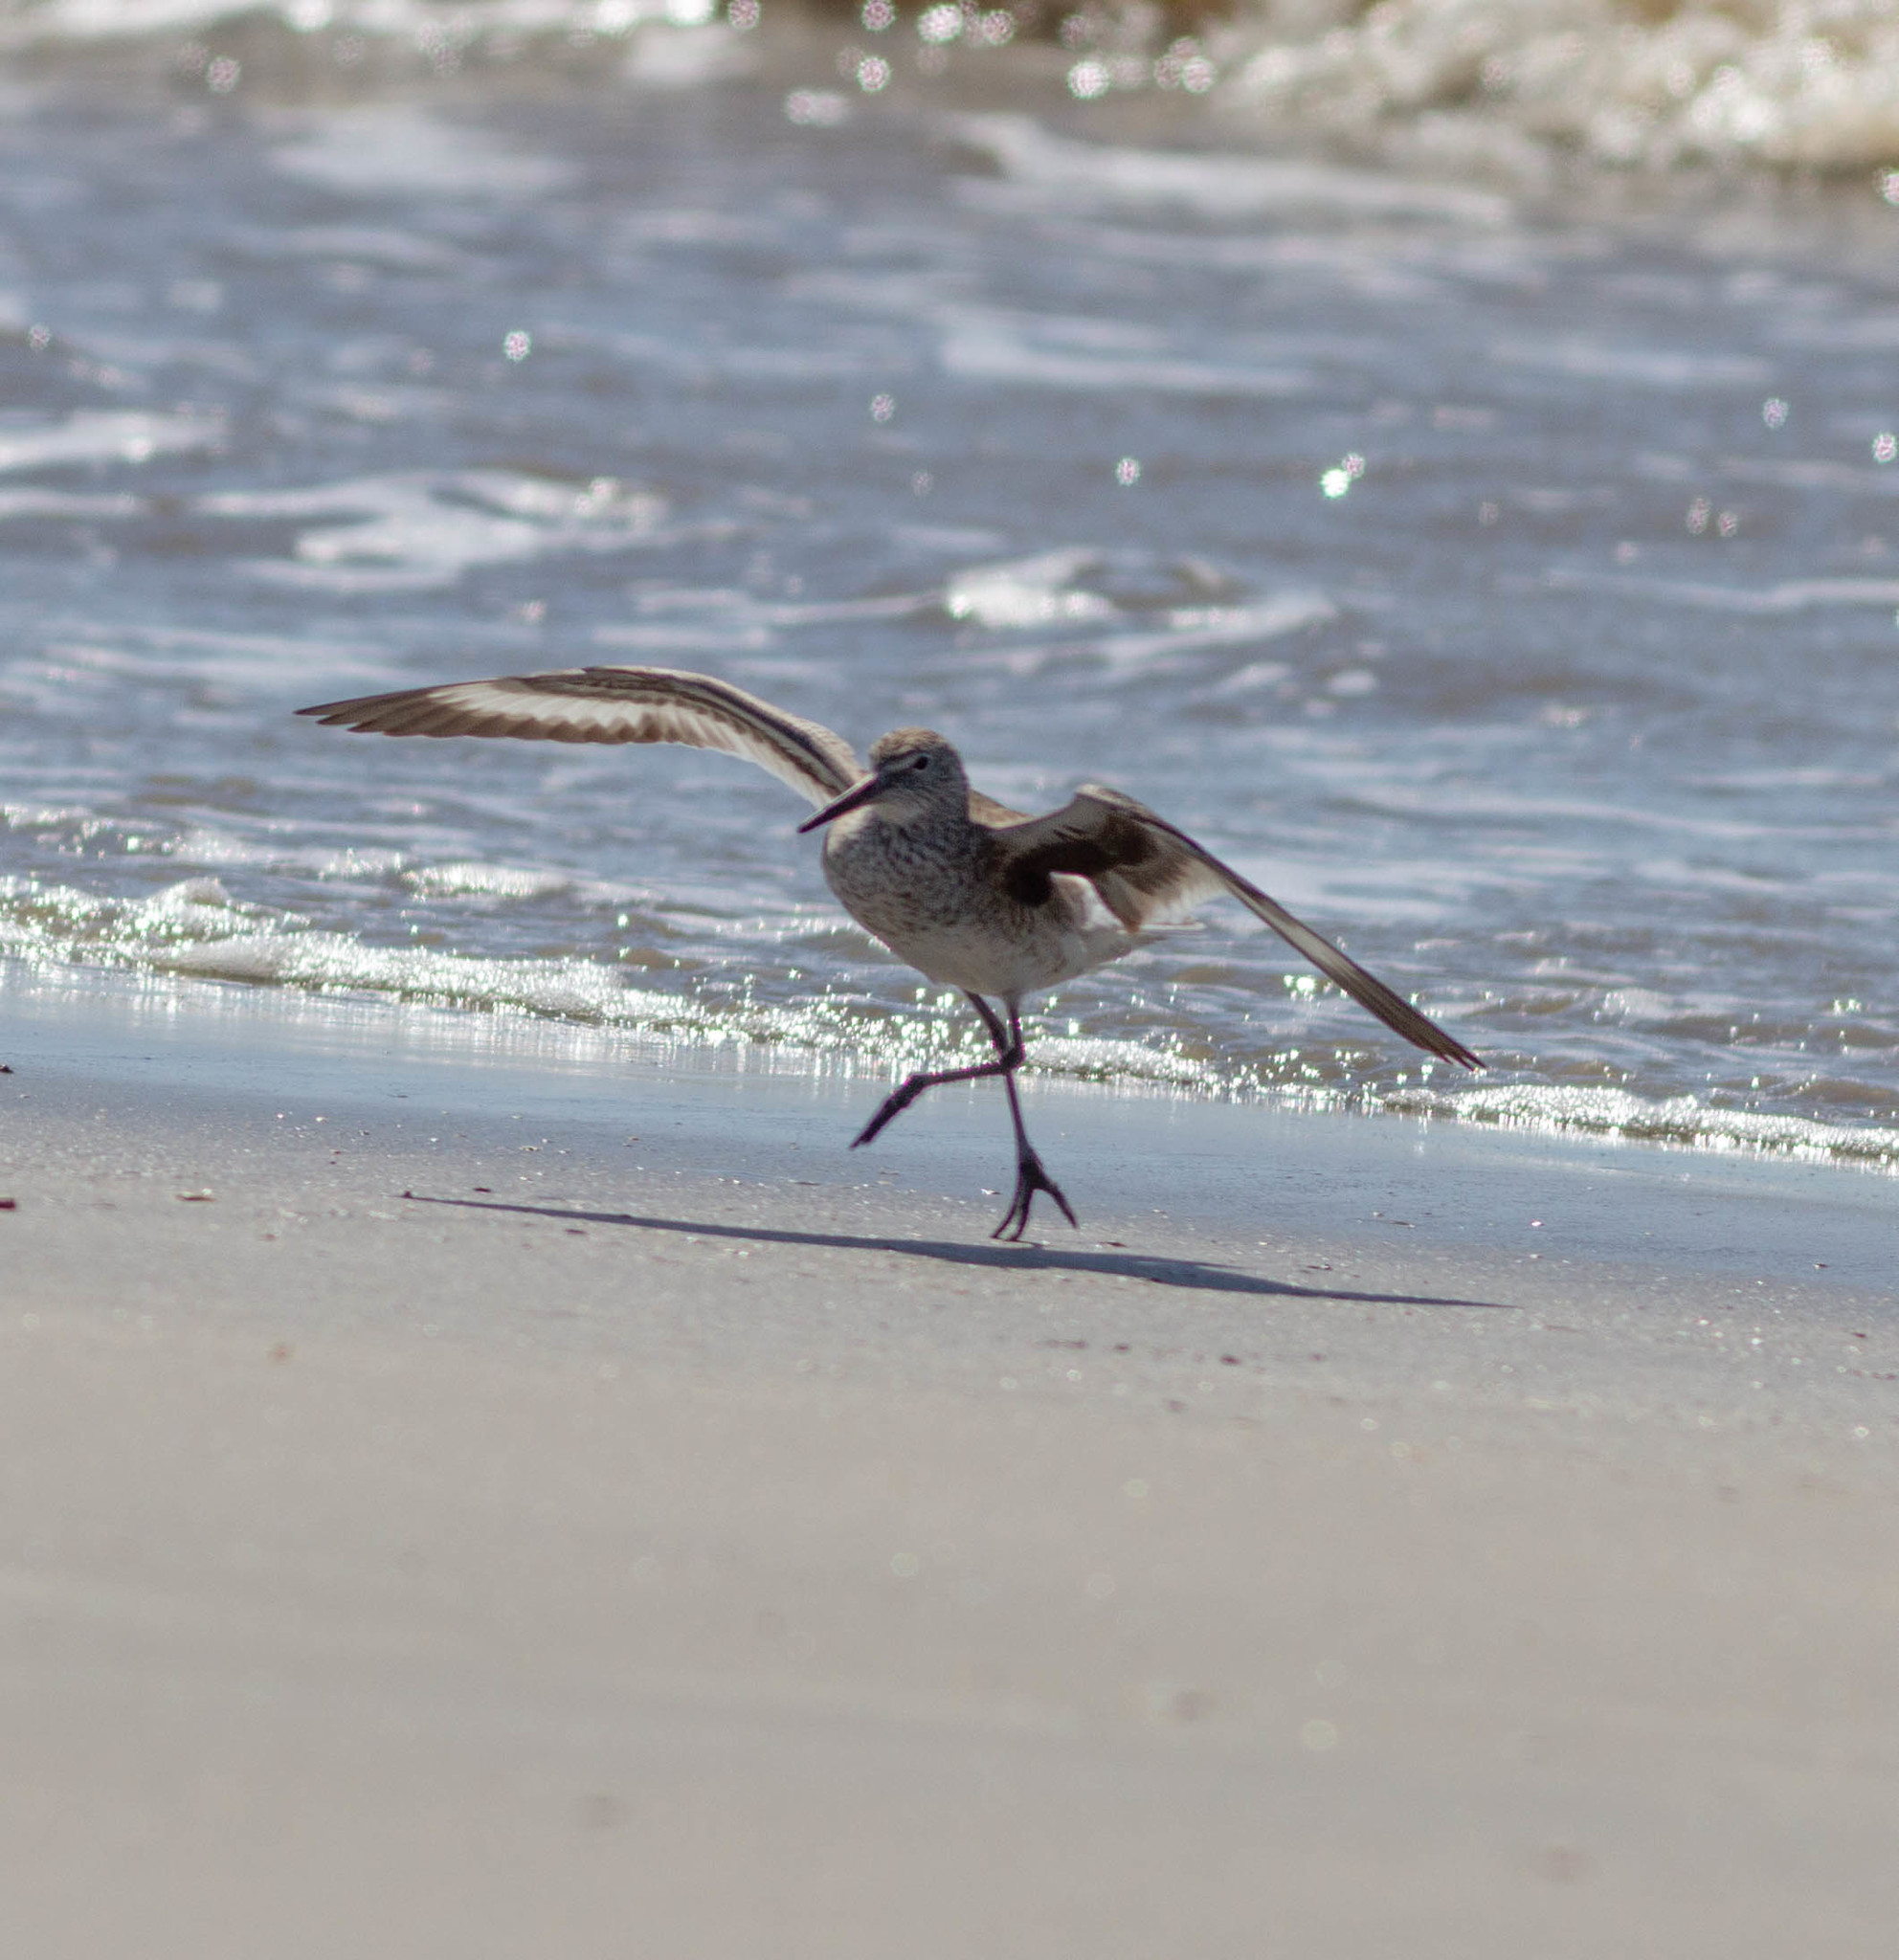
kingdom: Animalia
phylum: Chordata
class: Aves
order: Charadriiformes
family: Scolopacidae
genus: Tringa
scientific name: Tringa semipalmata
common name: Willet
